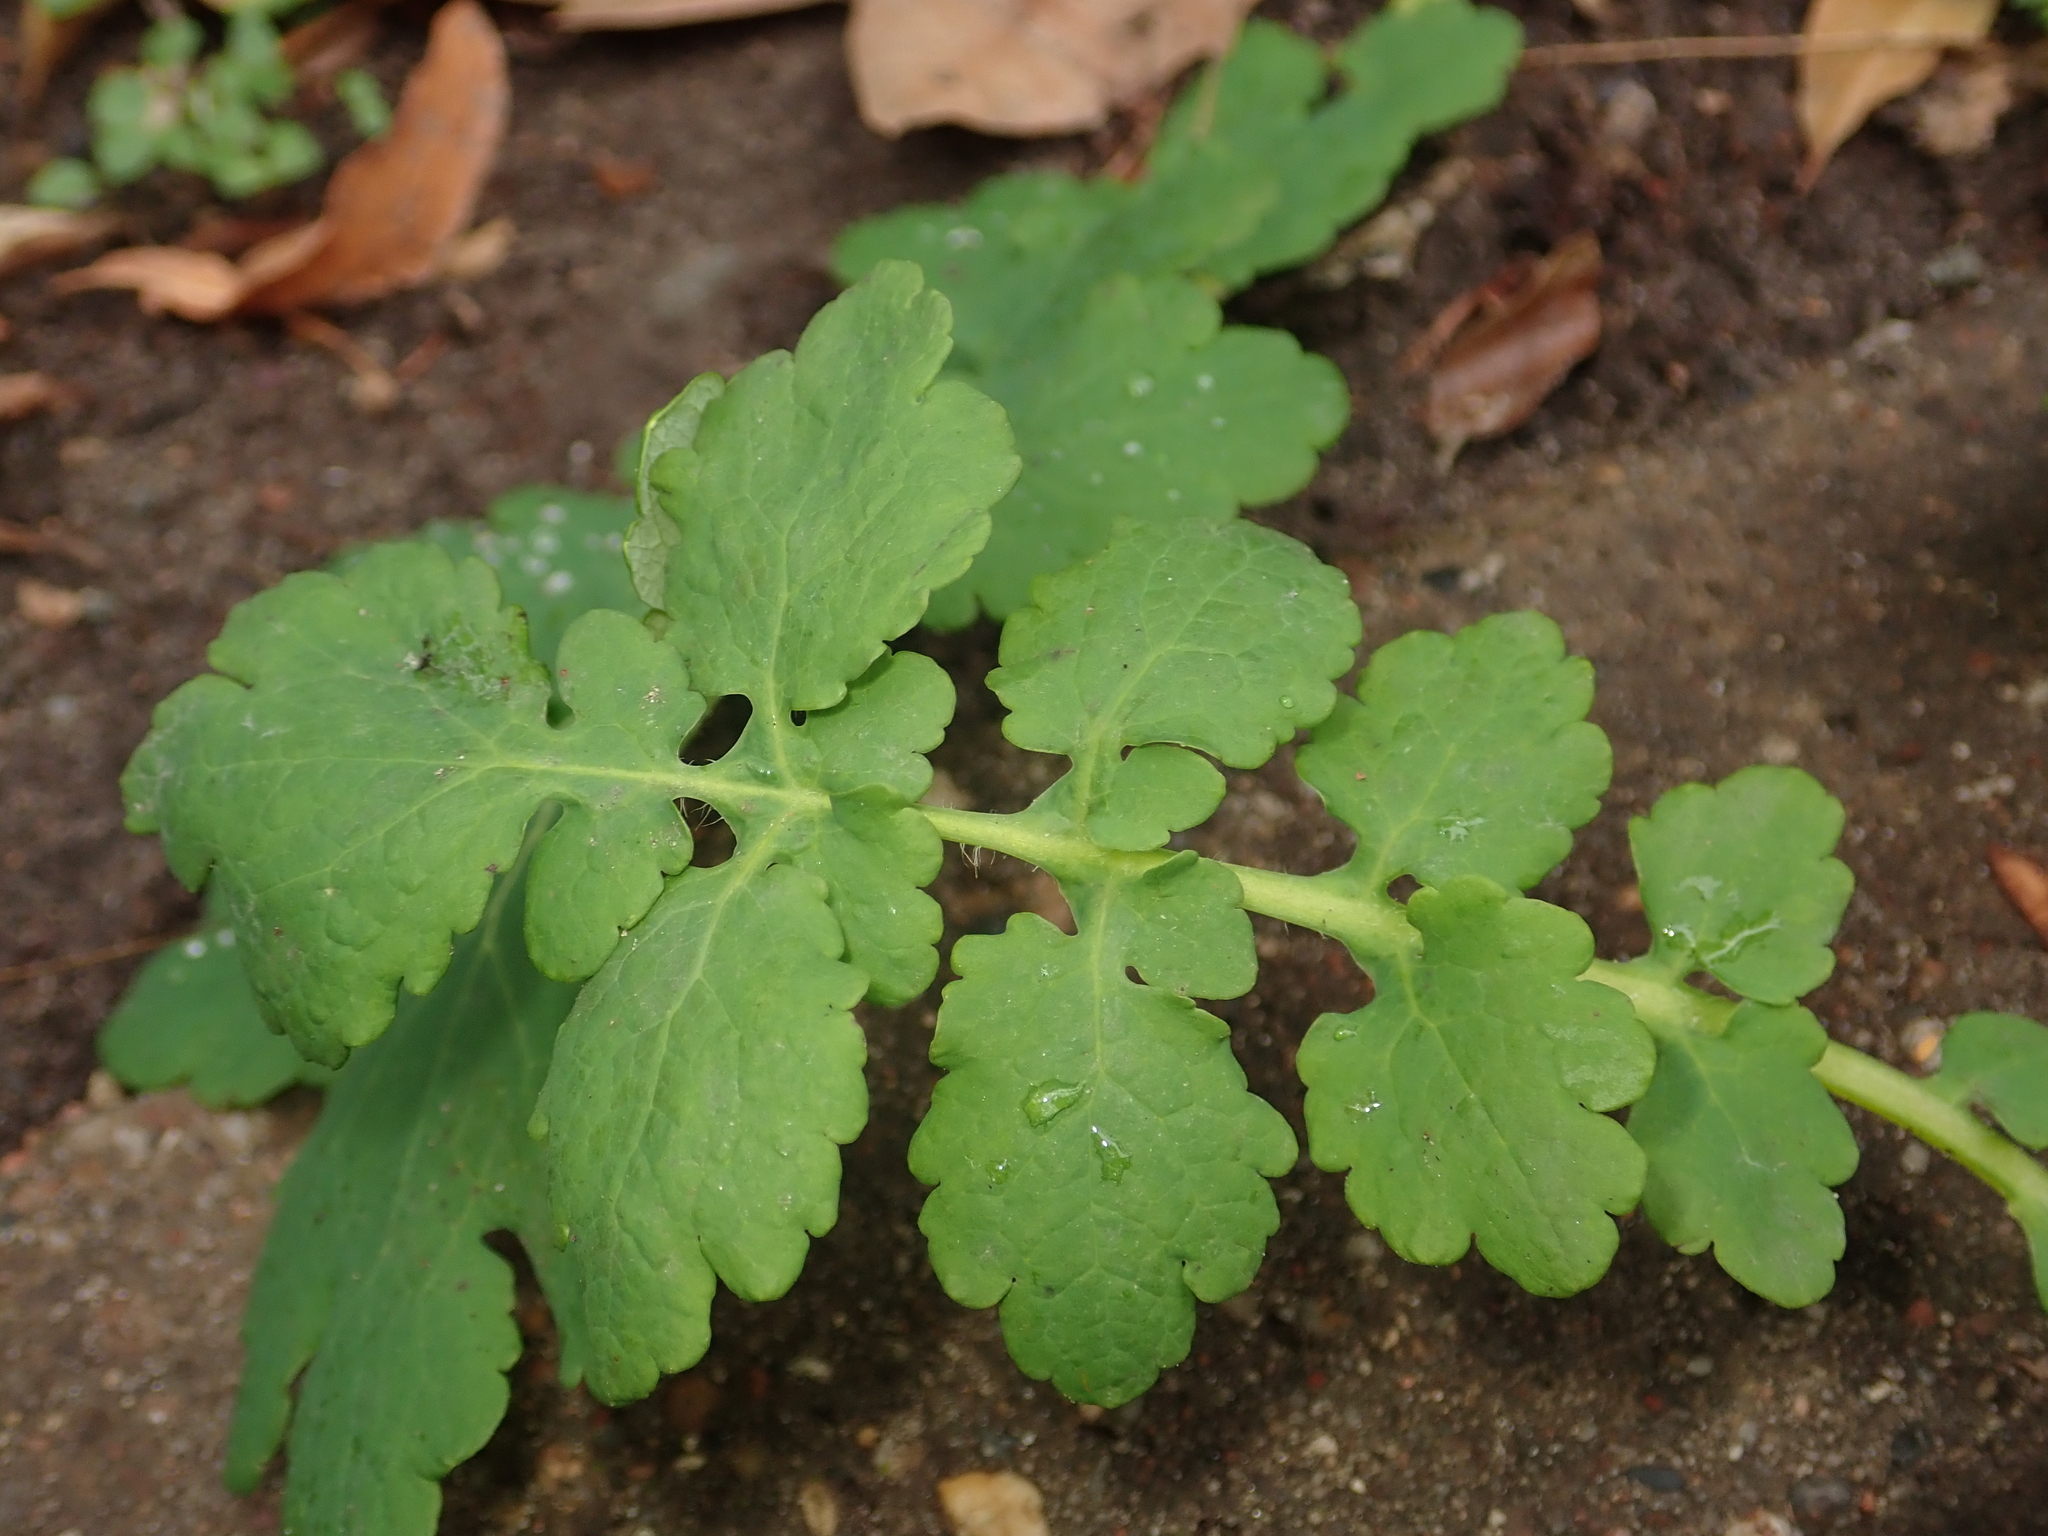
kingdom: Plantae
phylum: Tracheophyta
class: Magnoliopsida
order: Ranunculales
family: Papaveraceae
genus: Chelidonium
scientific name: Chelidonium majus
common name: Greater celandine
